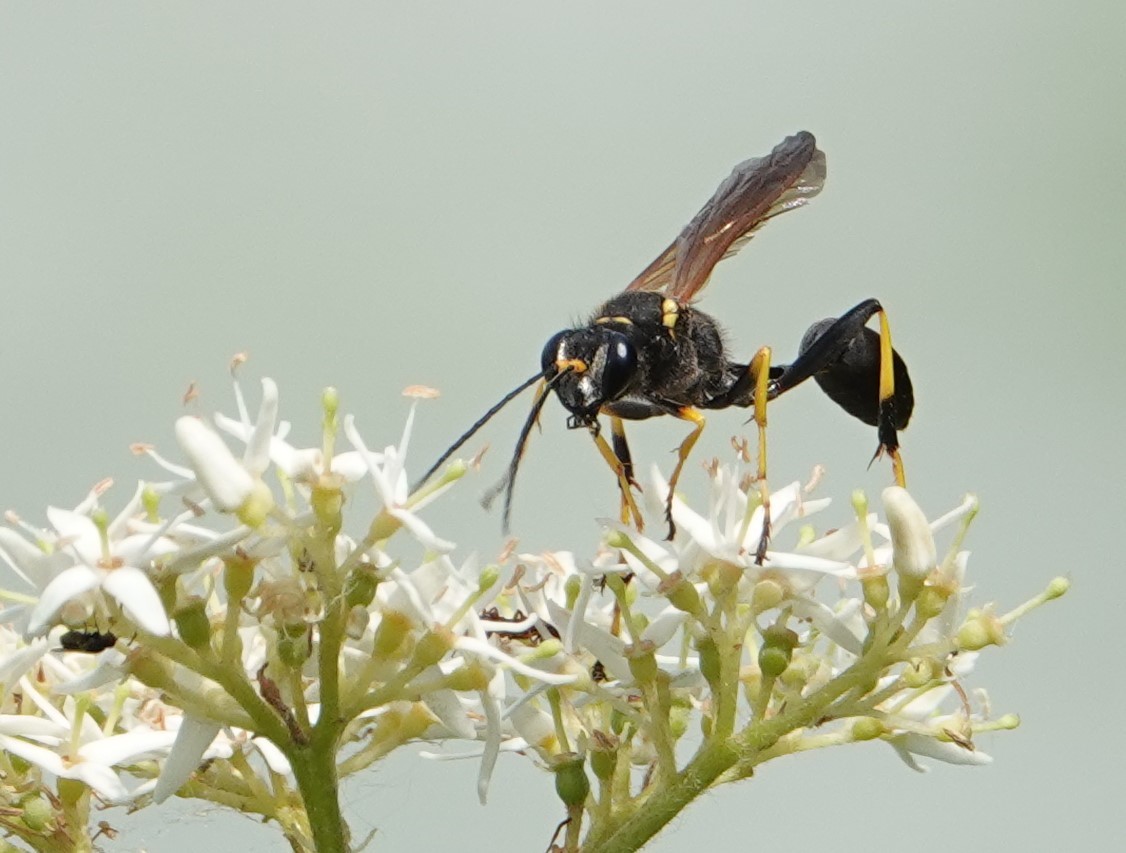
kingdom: Animalia
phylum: Arthropoda
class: Insecta
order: Hymenoptera
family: Sphecidae
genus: Sceliphron
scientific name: Sceliphron caementarium
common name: Mud dauber
